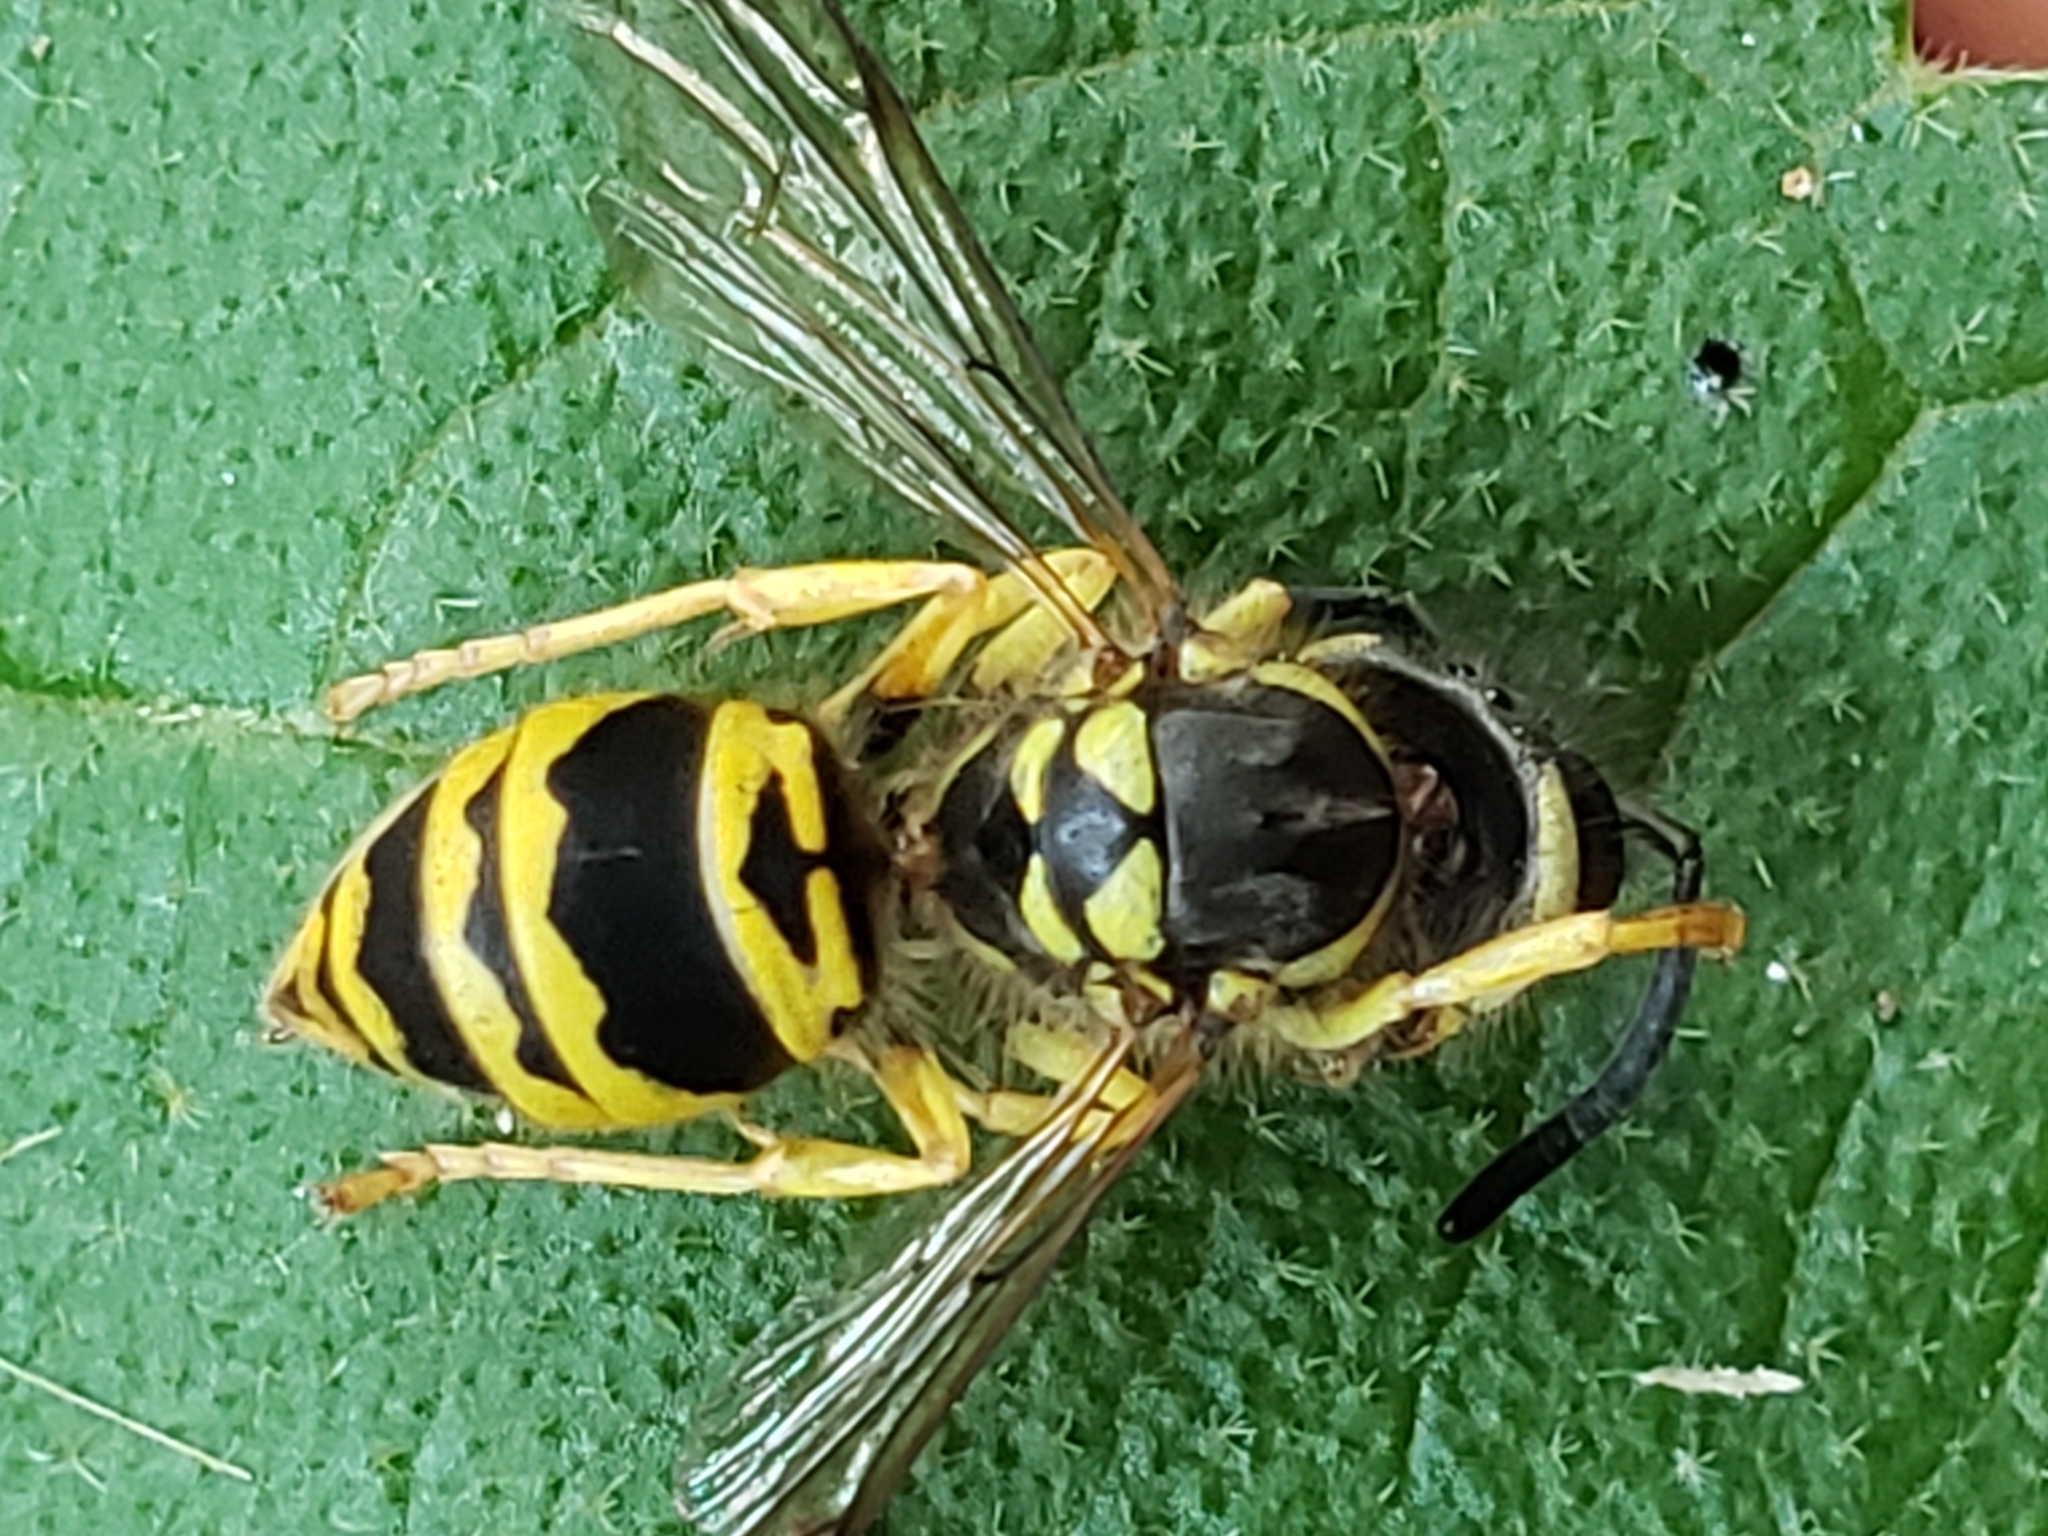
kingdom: Animalia
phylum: Arthropoda
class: Insecta
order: Hymenoptera
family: Vespidae
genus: Vespula
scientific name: Vespula maculifrons
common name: Eastern yellowjacket
